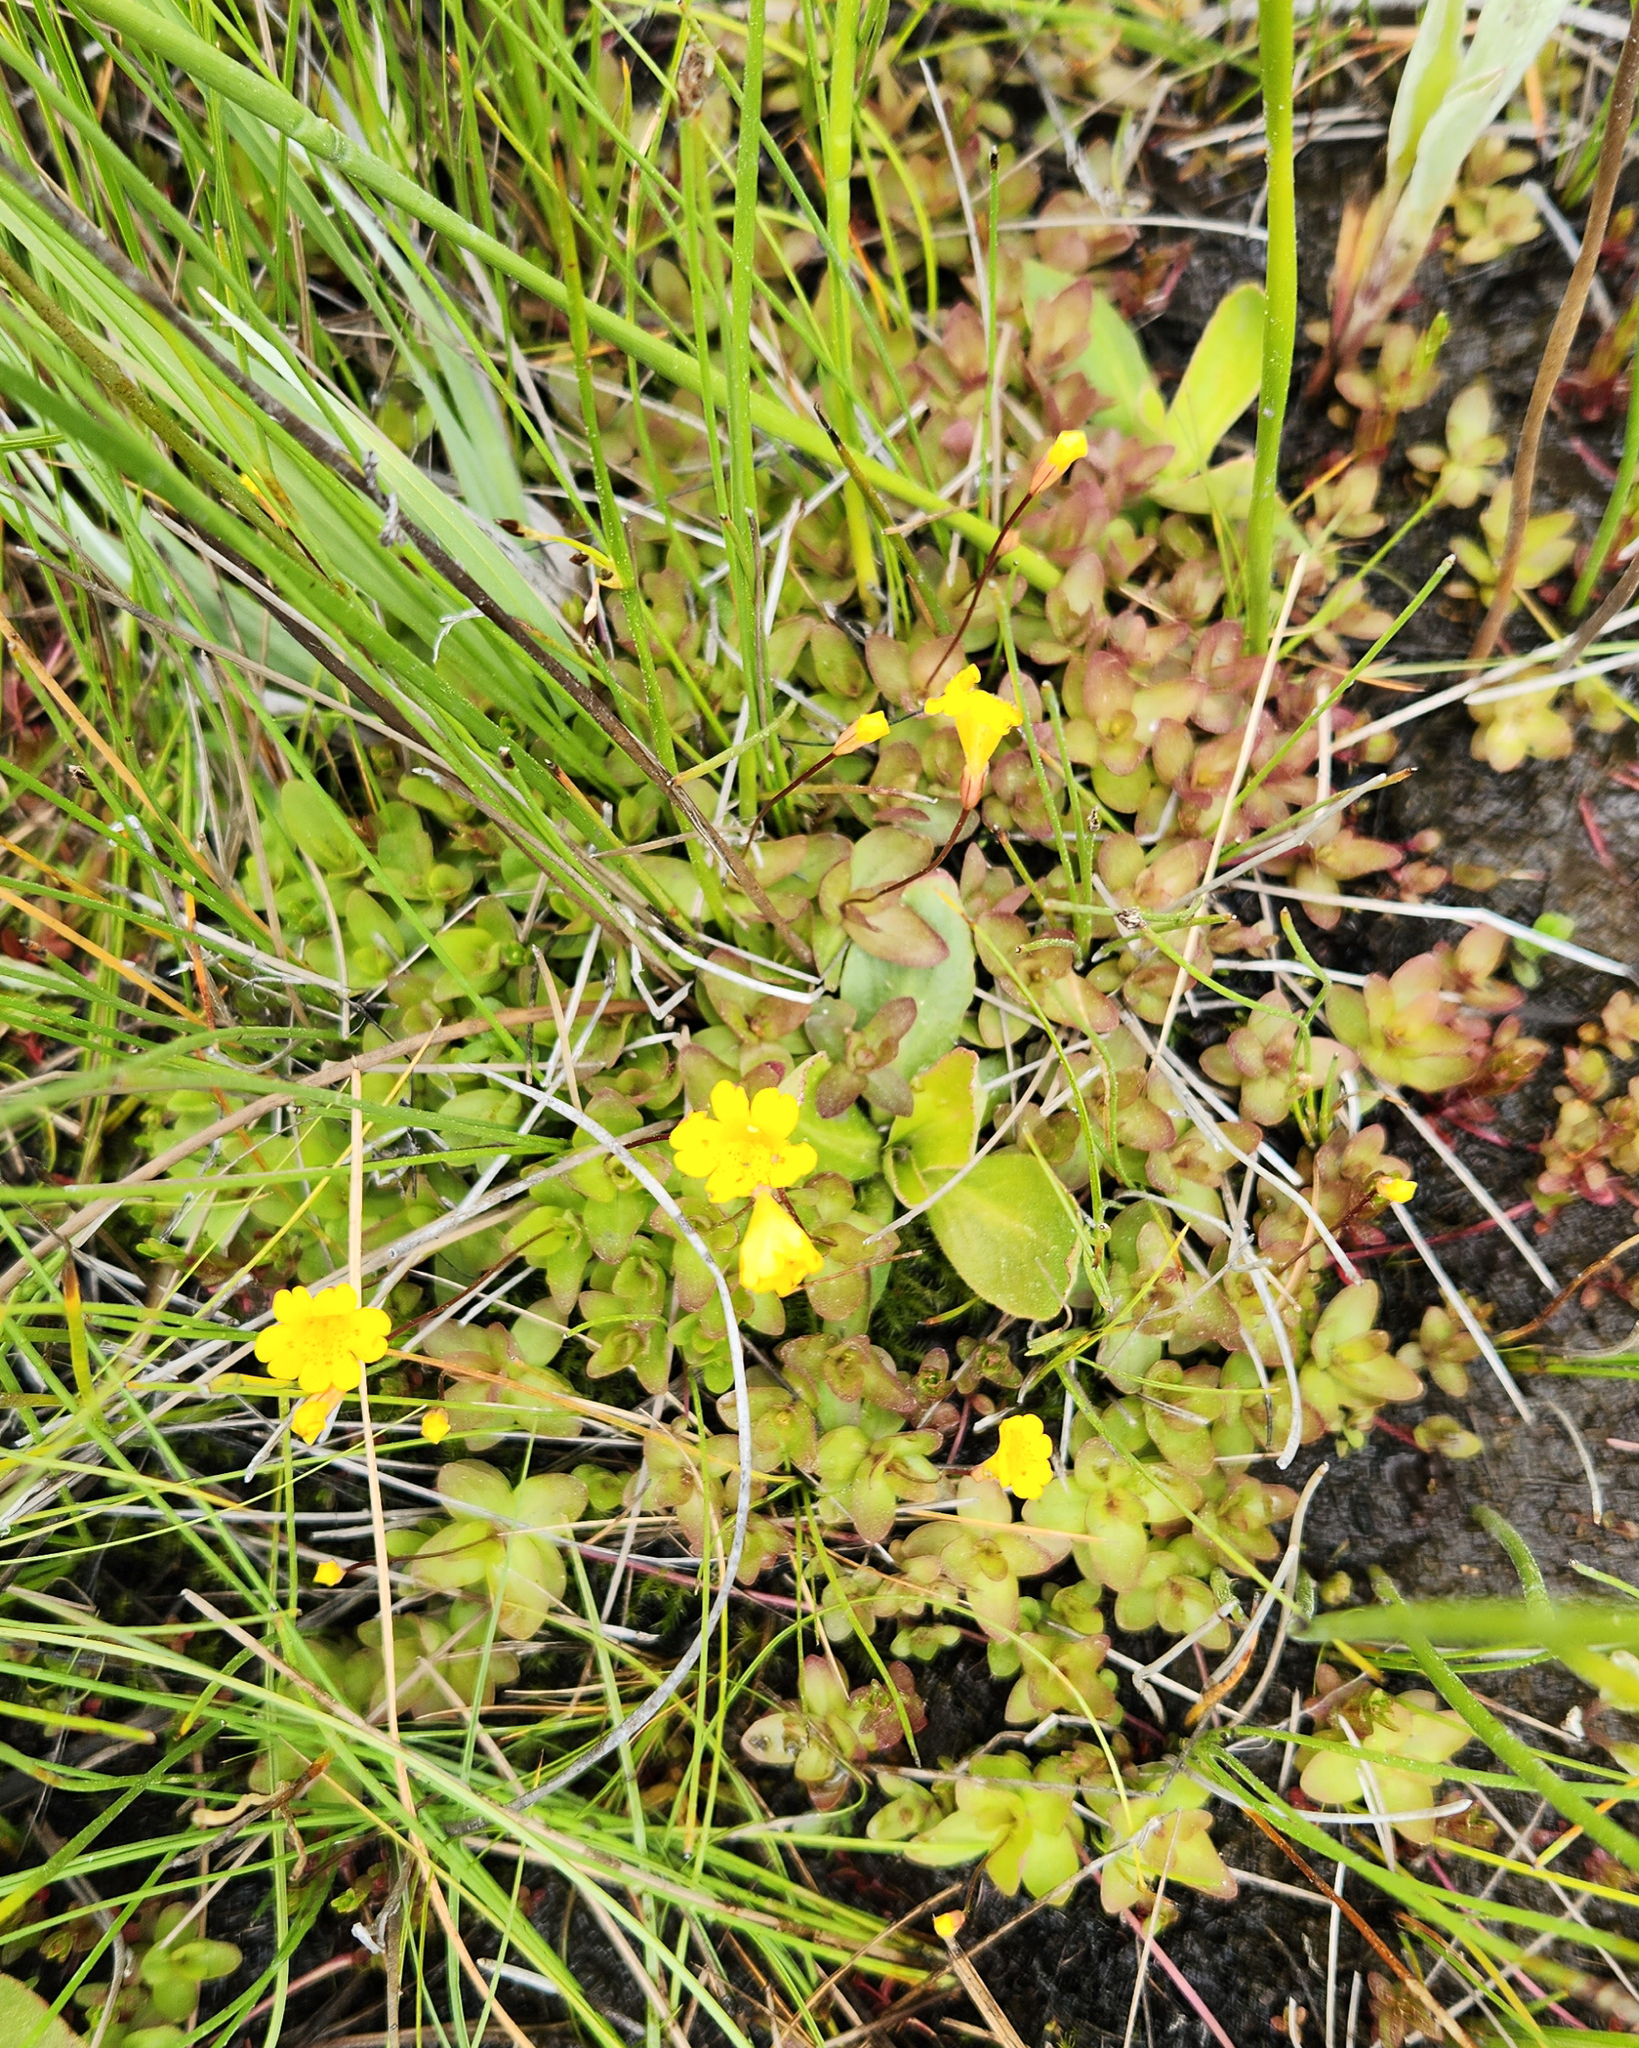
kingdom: Plantae
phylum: Tracheophyta
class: Magnoliopsida
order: Lamiales
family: Phrymaceae
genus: Erythranthe
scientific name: Erythranthe primuloides
